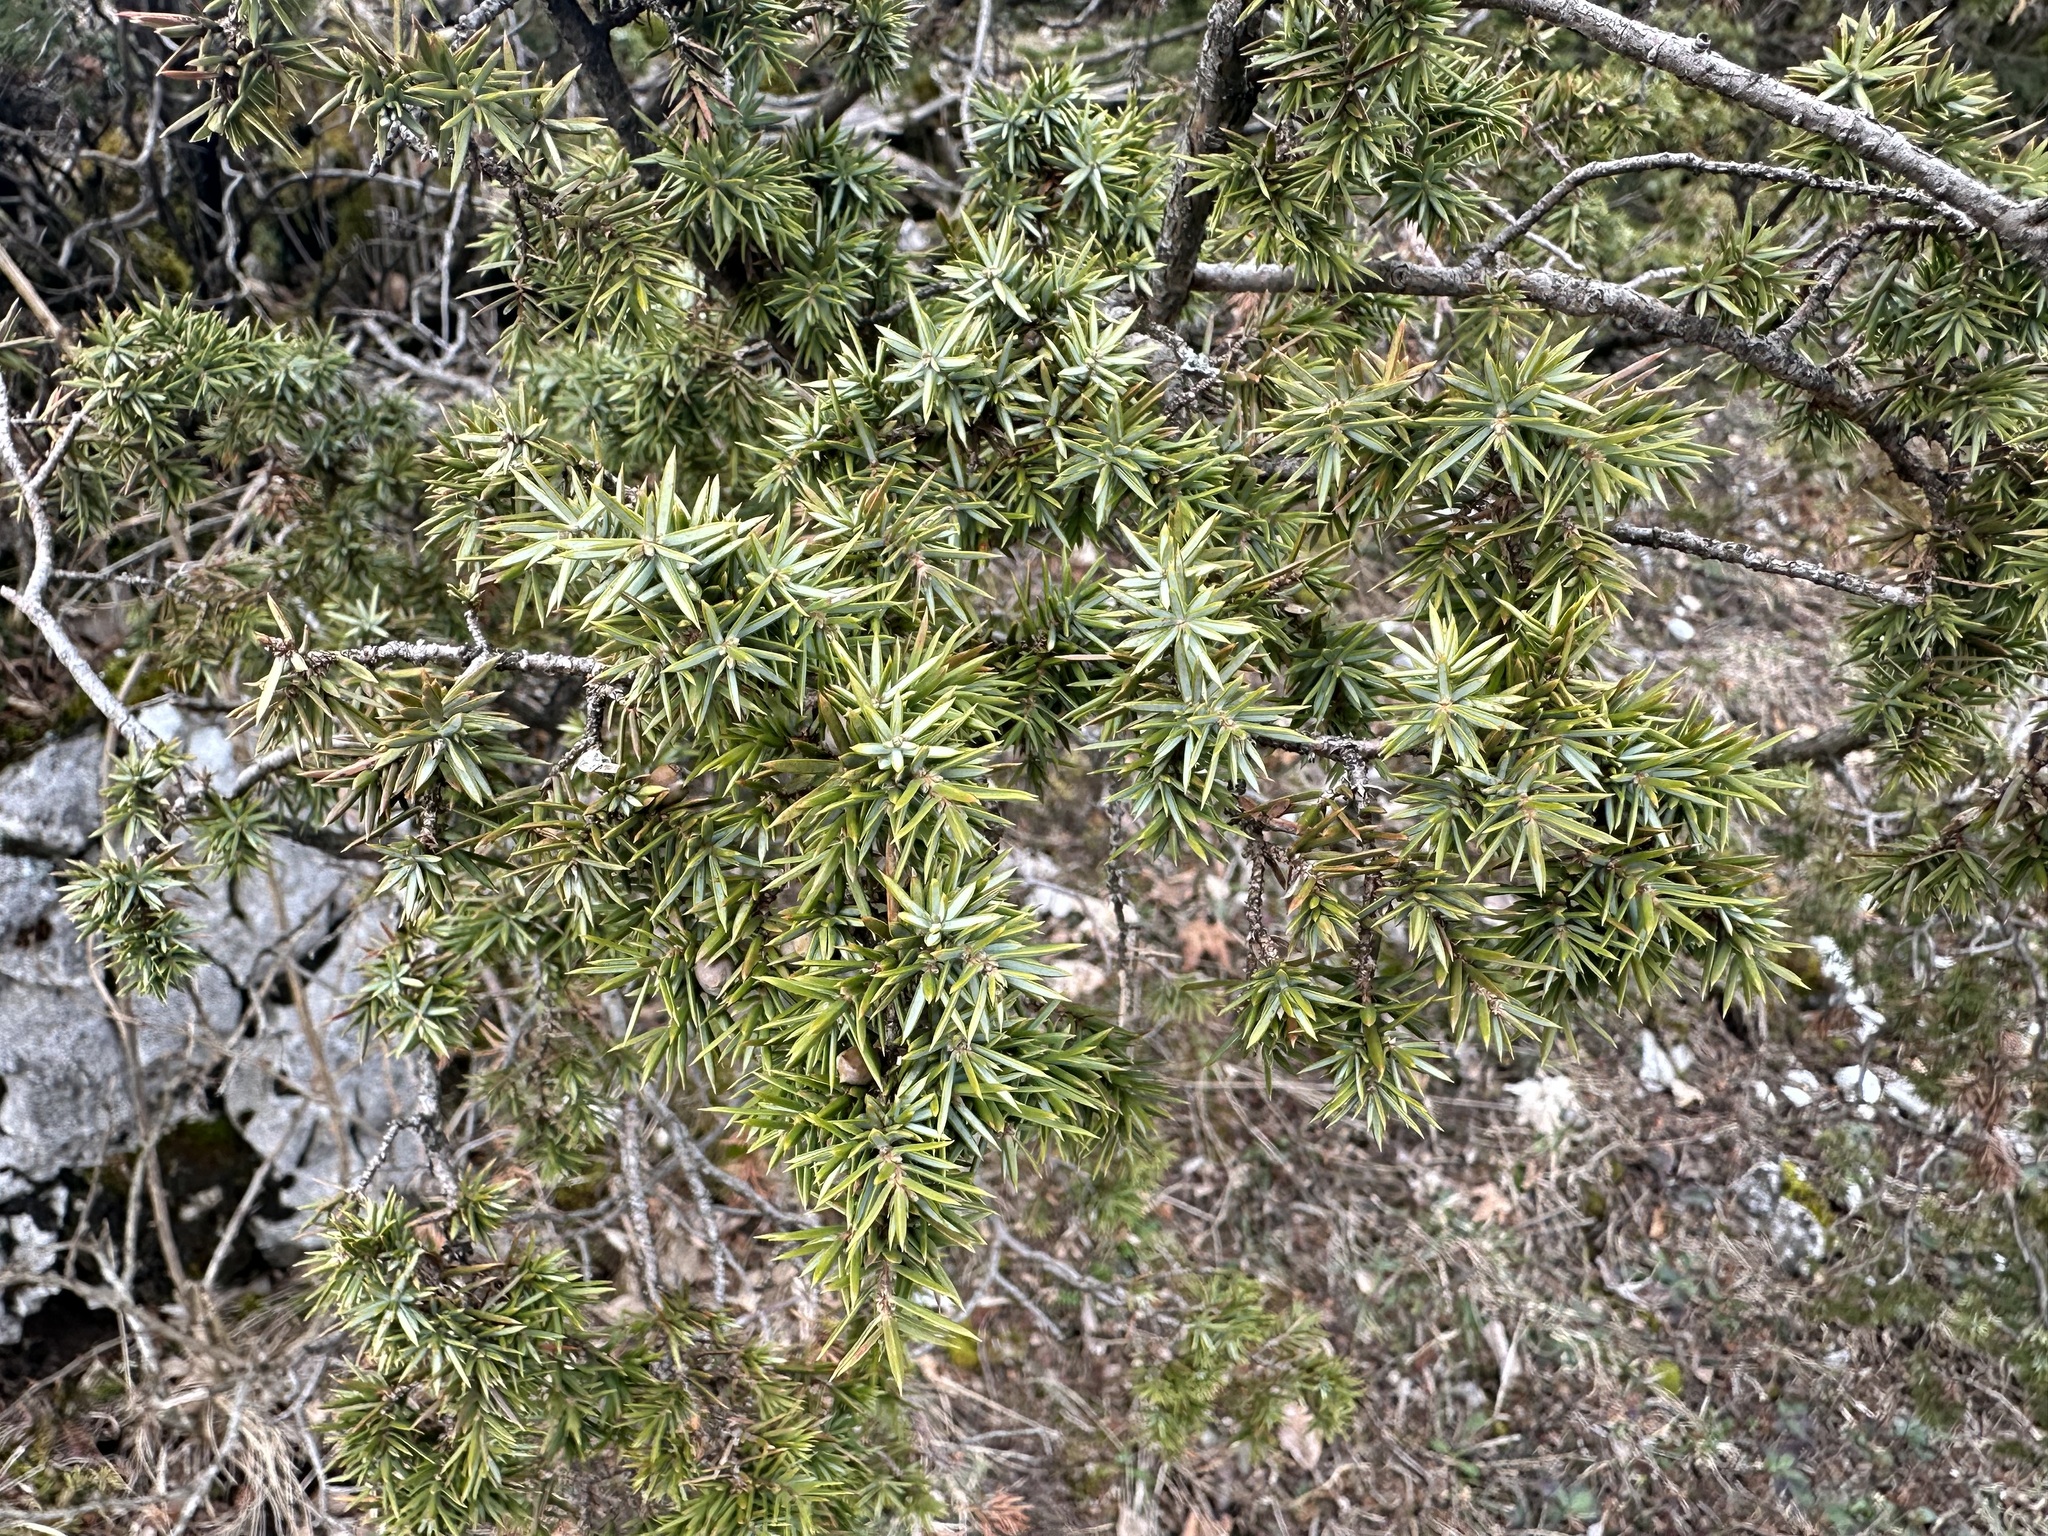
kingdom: Plantae
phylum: Tracheophyta
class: Pinopsida
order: Pinales
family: Cupressaceae
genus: Juniperus
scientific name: Juniperus communis
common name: Common juniper
